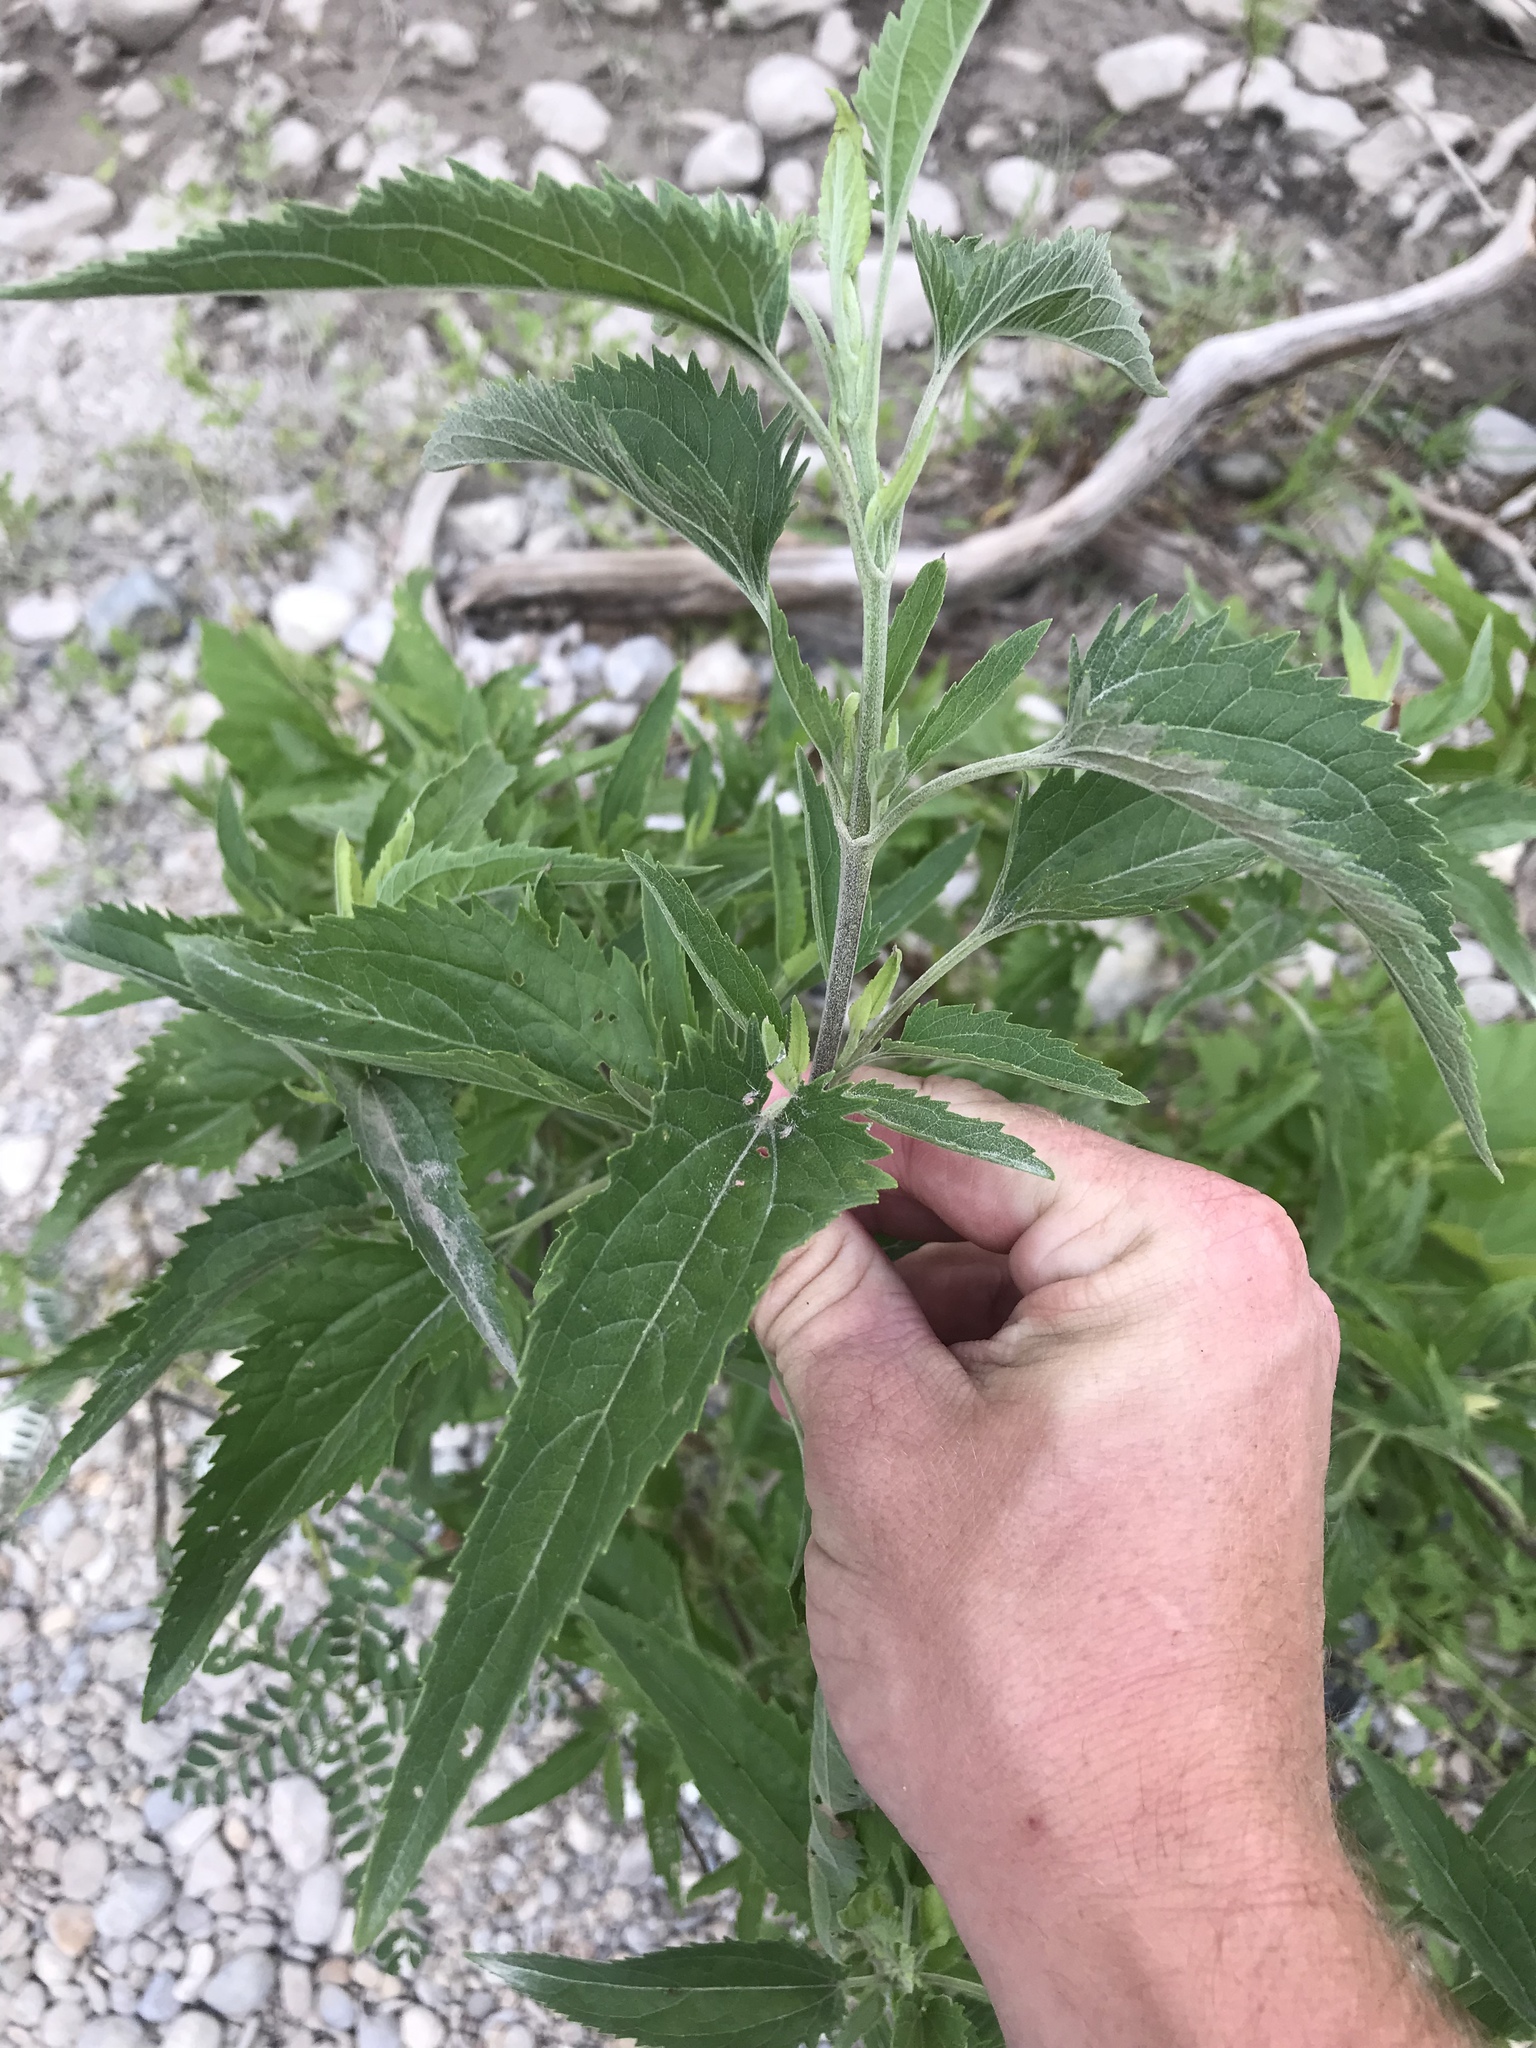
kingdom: Plantae
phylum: Tracheophyta
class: Magnoliopsida
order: Asterales
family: Asteraceae
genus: Eupatorium
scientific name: Eupatorium serotinum
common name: Late boneset
